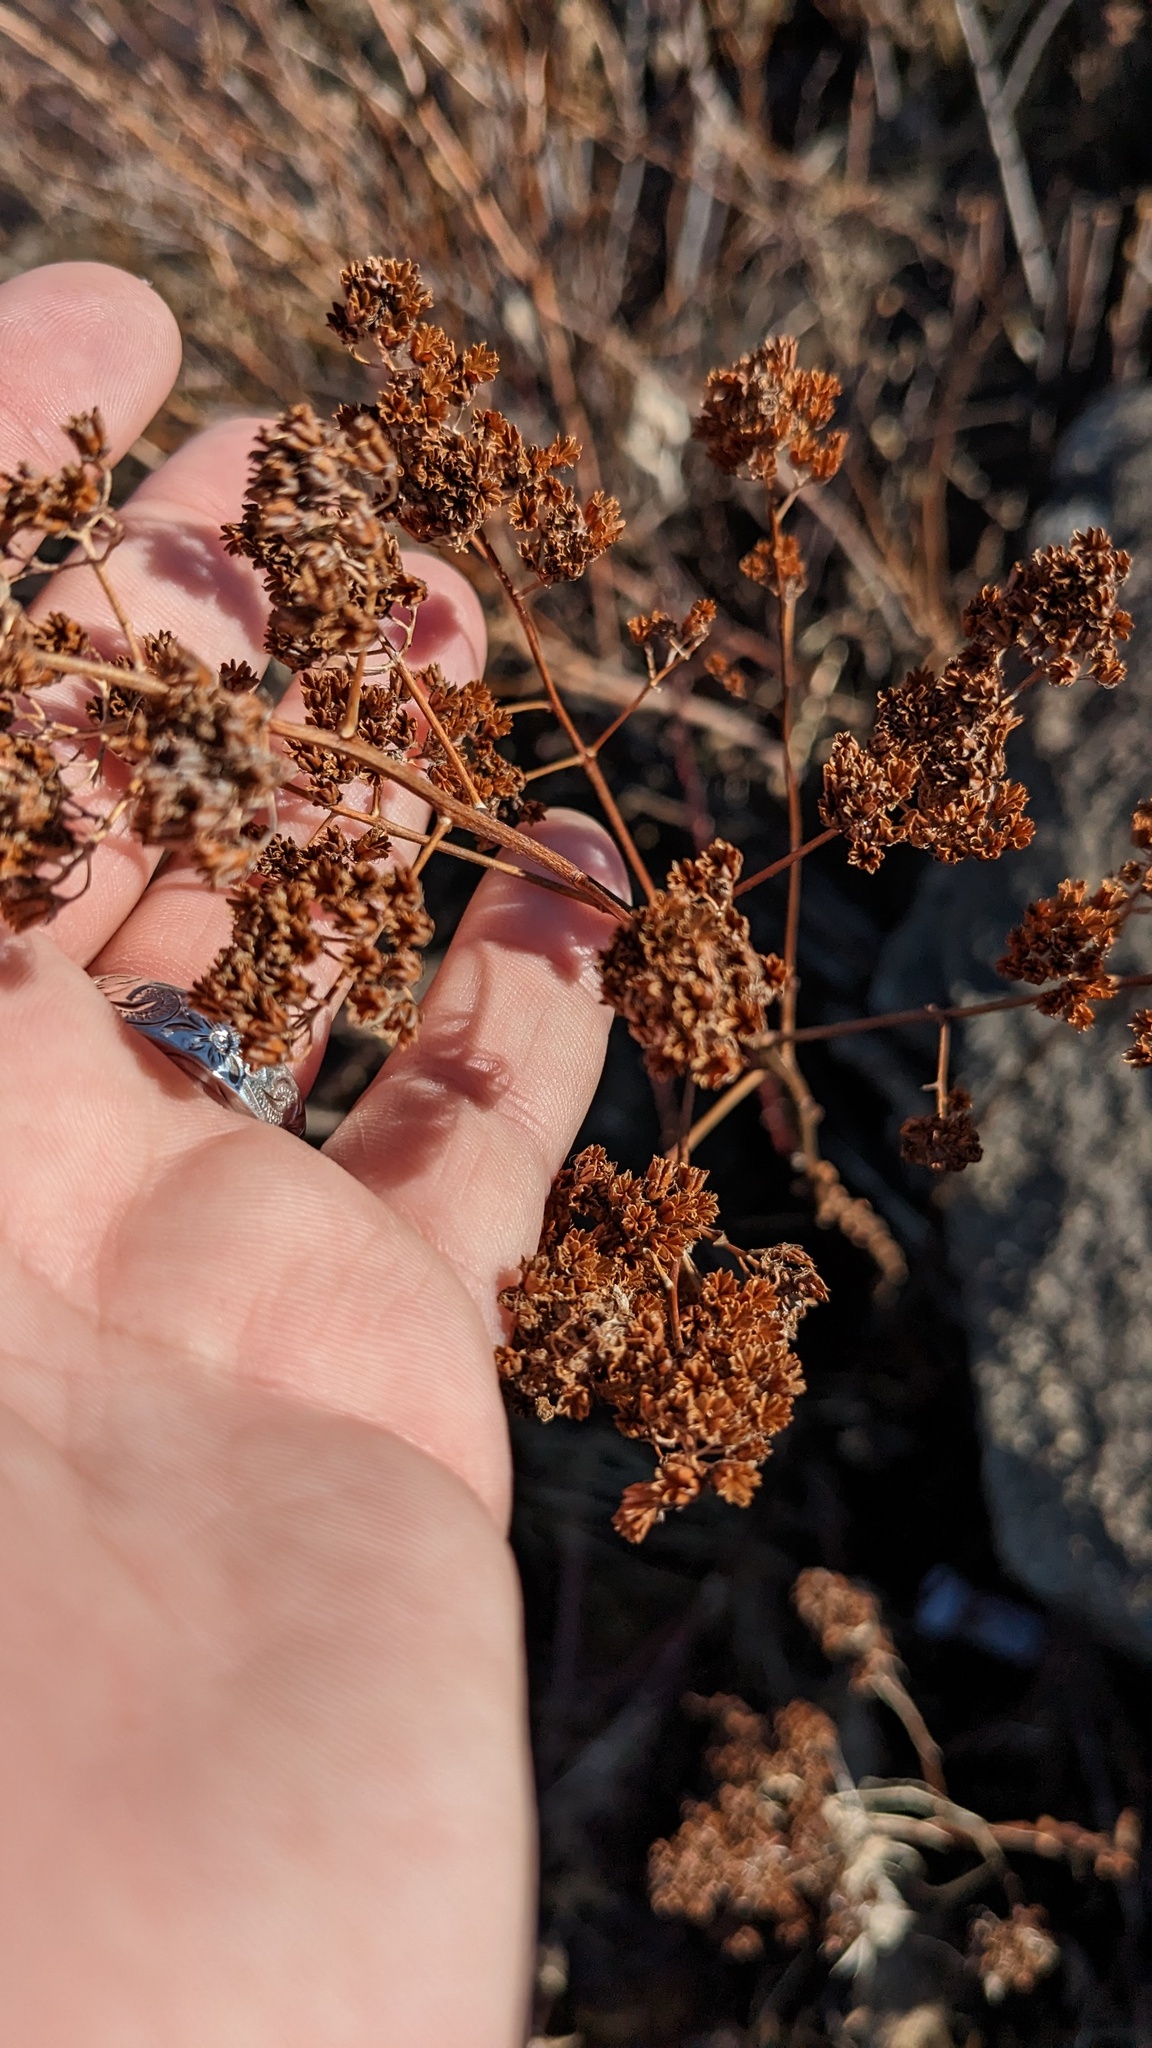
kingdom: Plantae
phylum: Tracheophyta
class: Magnoliopsida
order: Rosales
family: Rosaceae
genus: Spiraea
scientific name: Spiraea alba
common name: Pale bridewort
